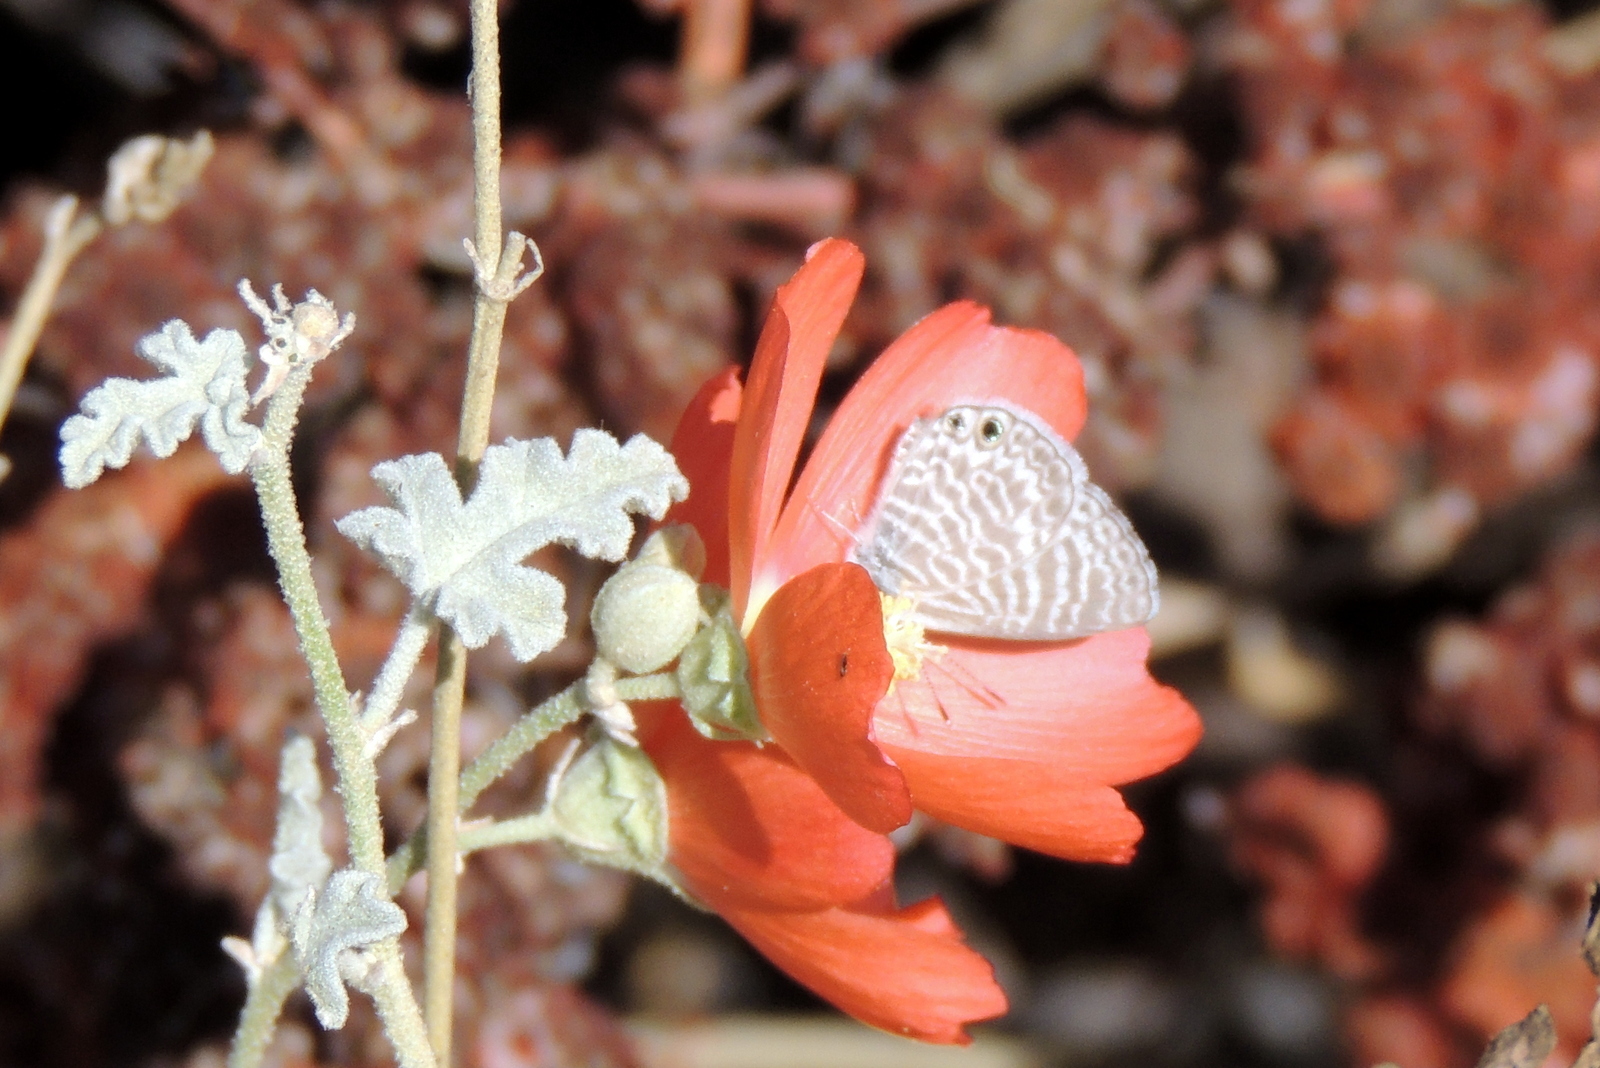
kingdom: Animalia
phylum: Arthropoda
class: Insecta
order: Lepidoptera
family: Lycaenidae
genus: Leptotes
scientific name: Leptotes marina
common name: Marine blue
